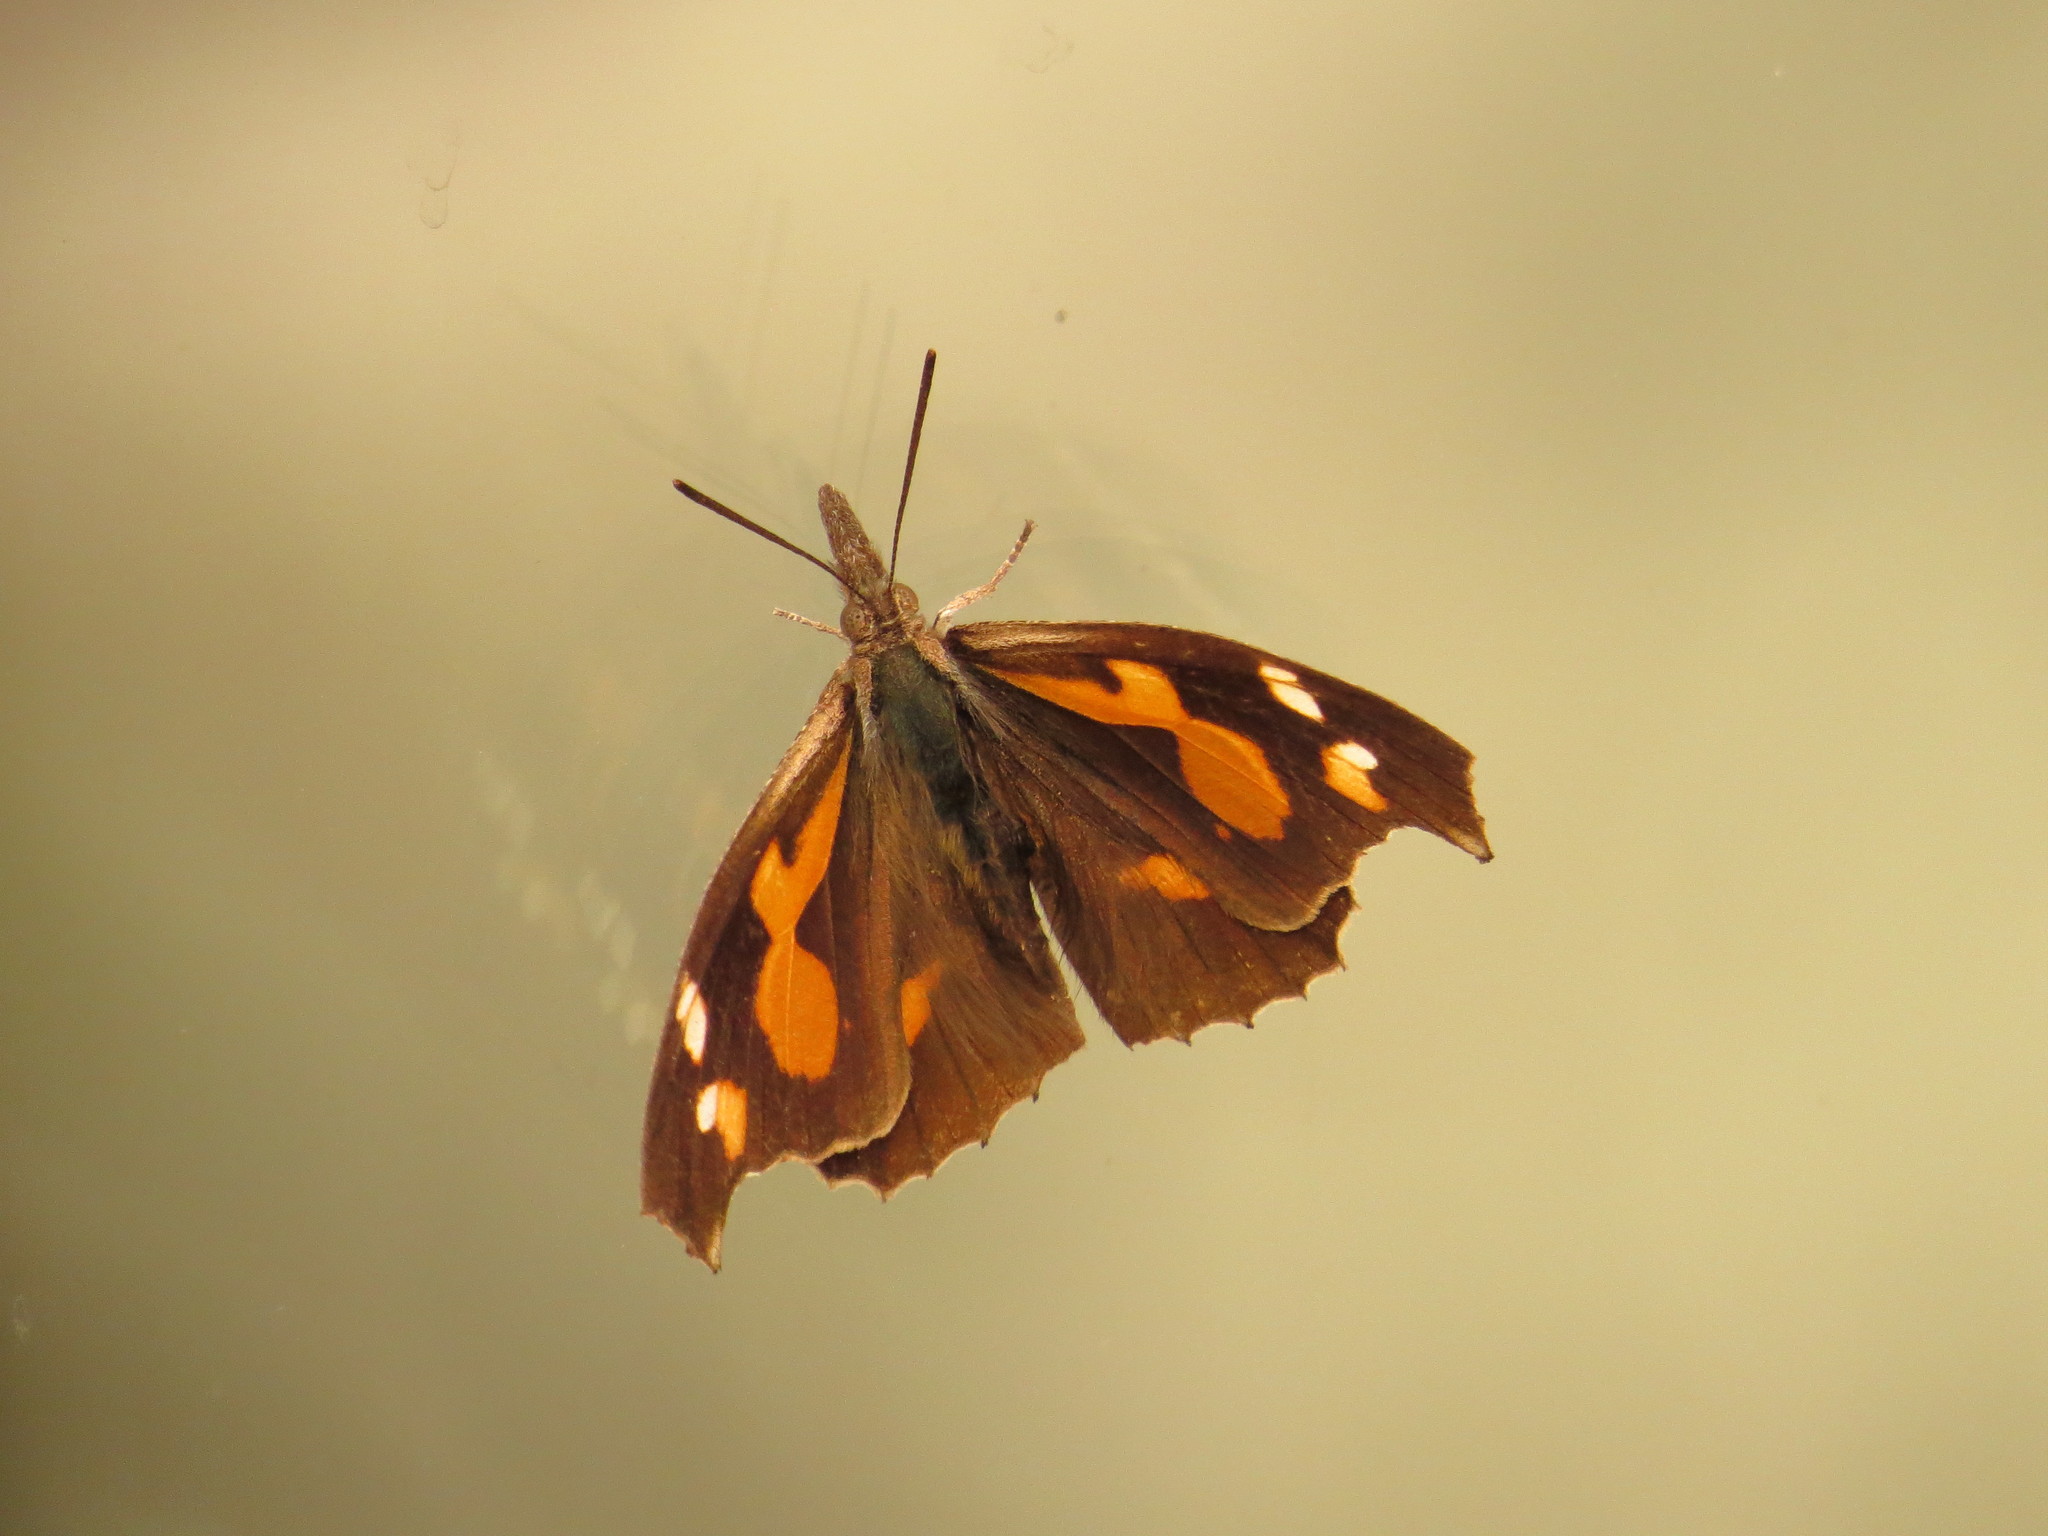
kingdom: Animalia
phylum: Arthropoda
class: Insecta
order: Lepidoptera
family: Nymphalidae
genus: Libythea
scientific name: Libythea lepita
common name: Common beak
